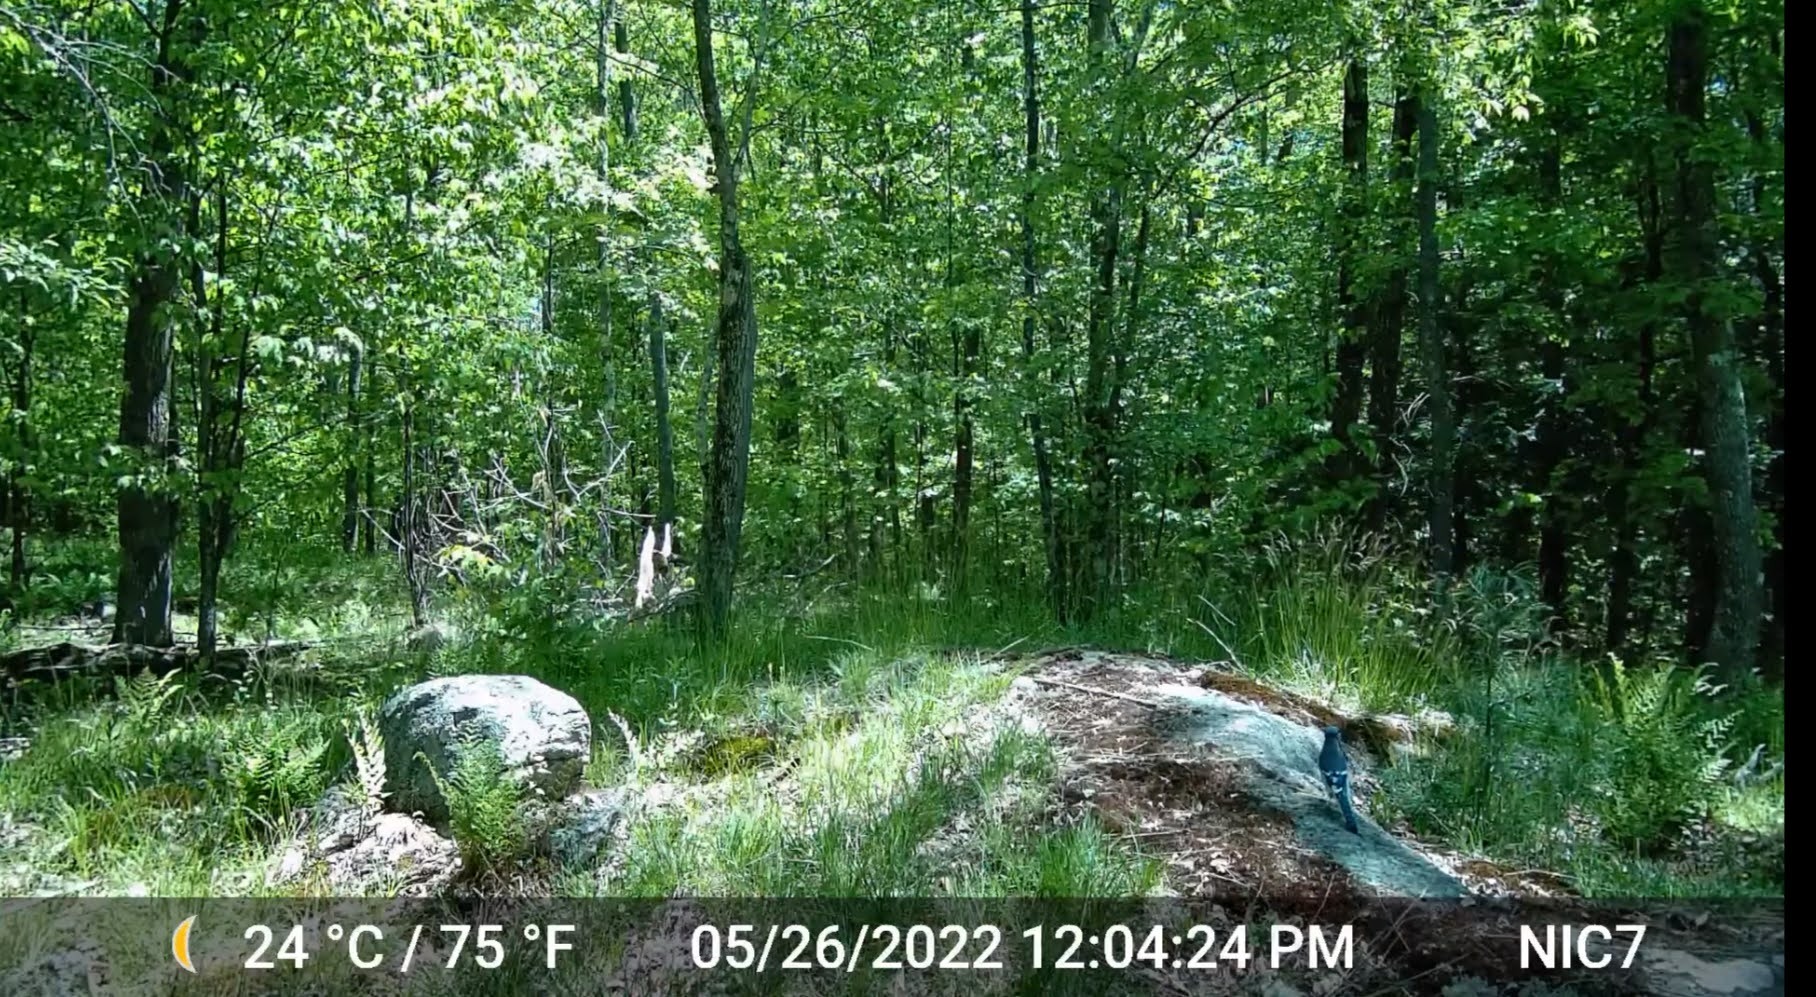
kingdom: Animalia
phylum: Chordata
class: Aves
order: Passeriformes
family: Corvidae
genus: Cyanocitta
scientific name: Cyanocitta cristata
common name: Blue jay
